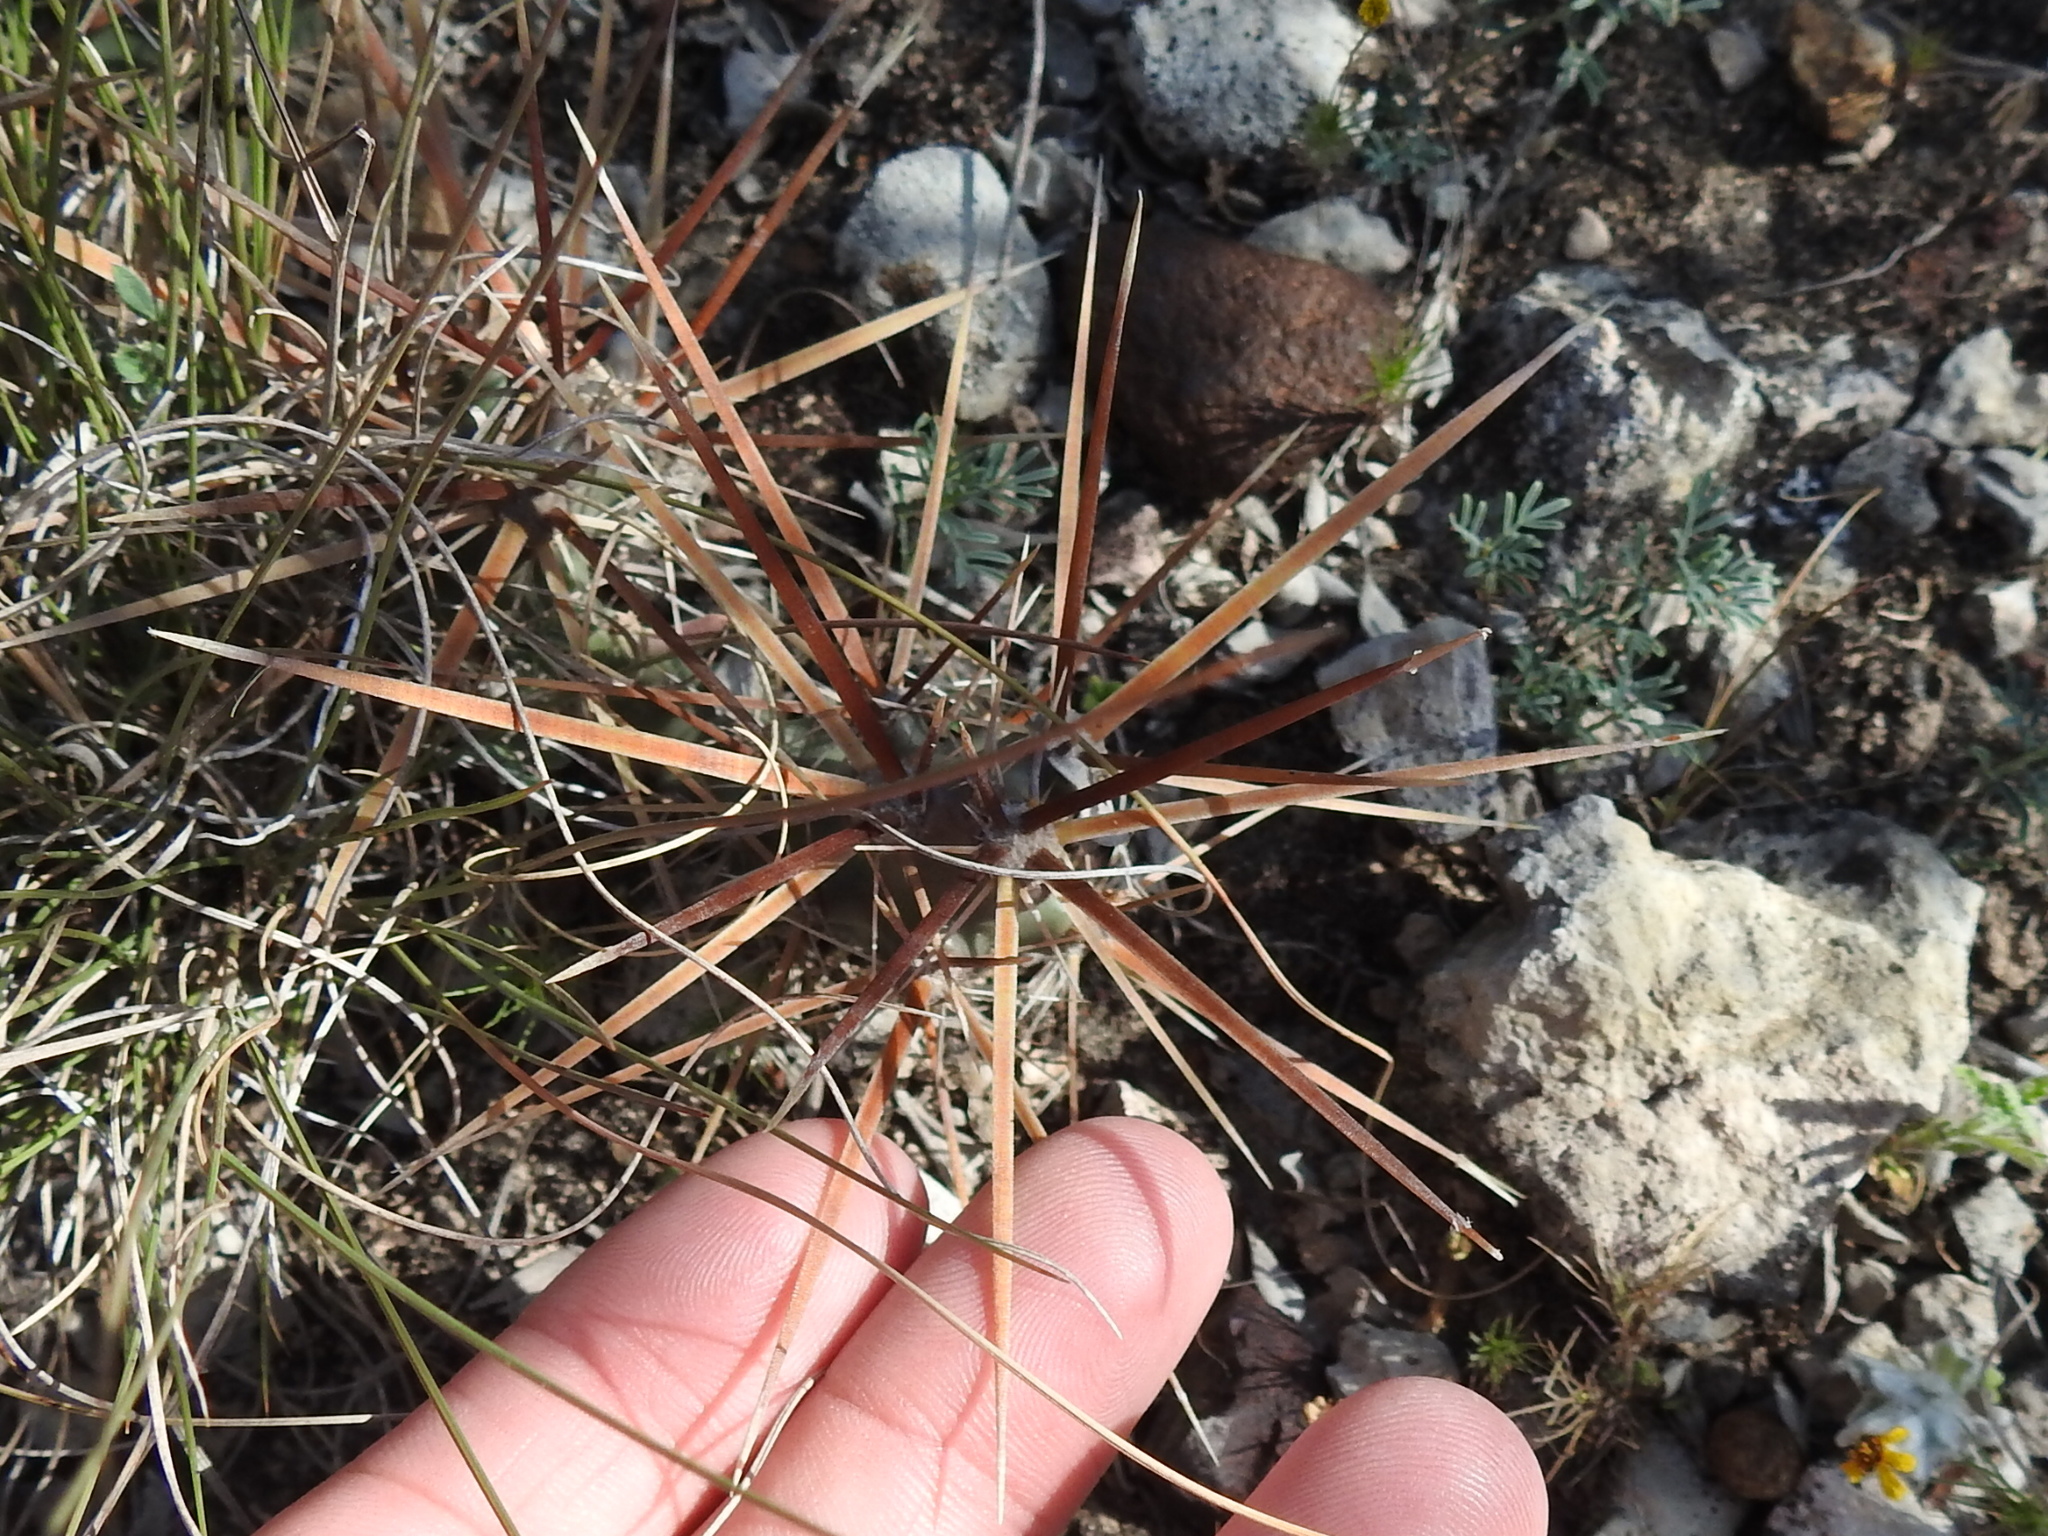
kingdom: Plantae
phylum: Tracheophyta
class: Magnoliopsida
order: Caryophyllales
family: Cactaceae
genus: Grusonia
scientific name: Grusonia schottii
